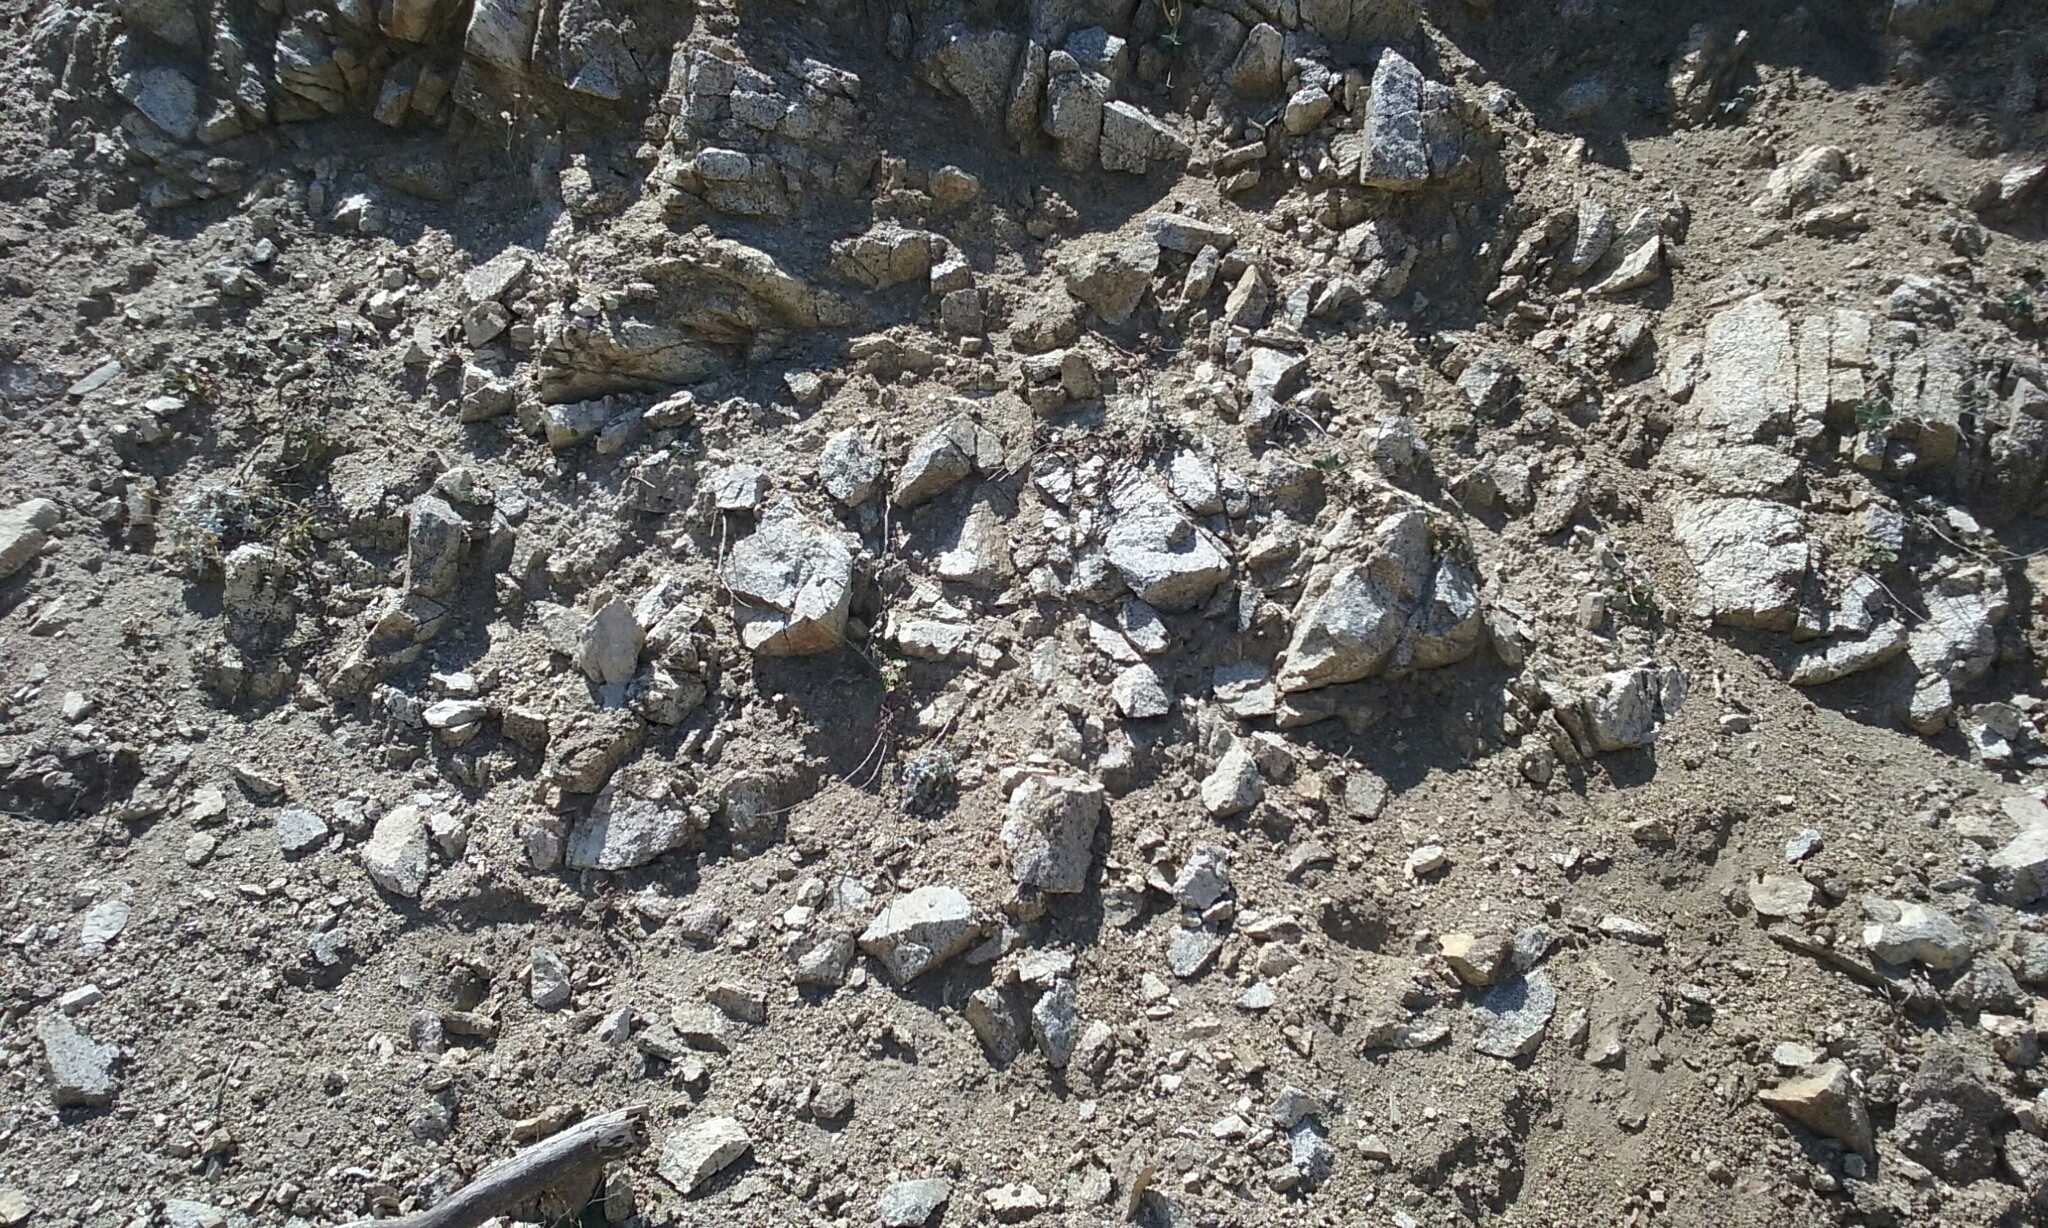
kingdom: Plantae
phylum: Tracheophyta
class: Magnoliopsida
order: Asterales
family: Asteraceae
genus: Chaenactis
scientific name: Chaenactis santolinoides
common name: Santolina pincushion
